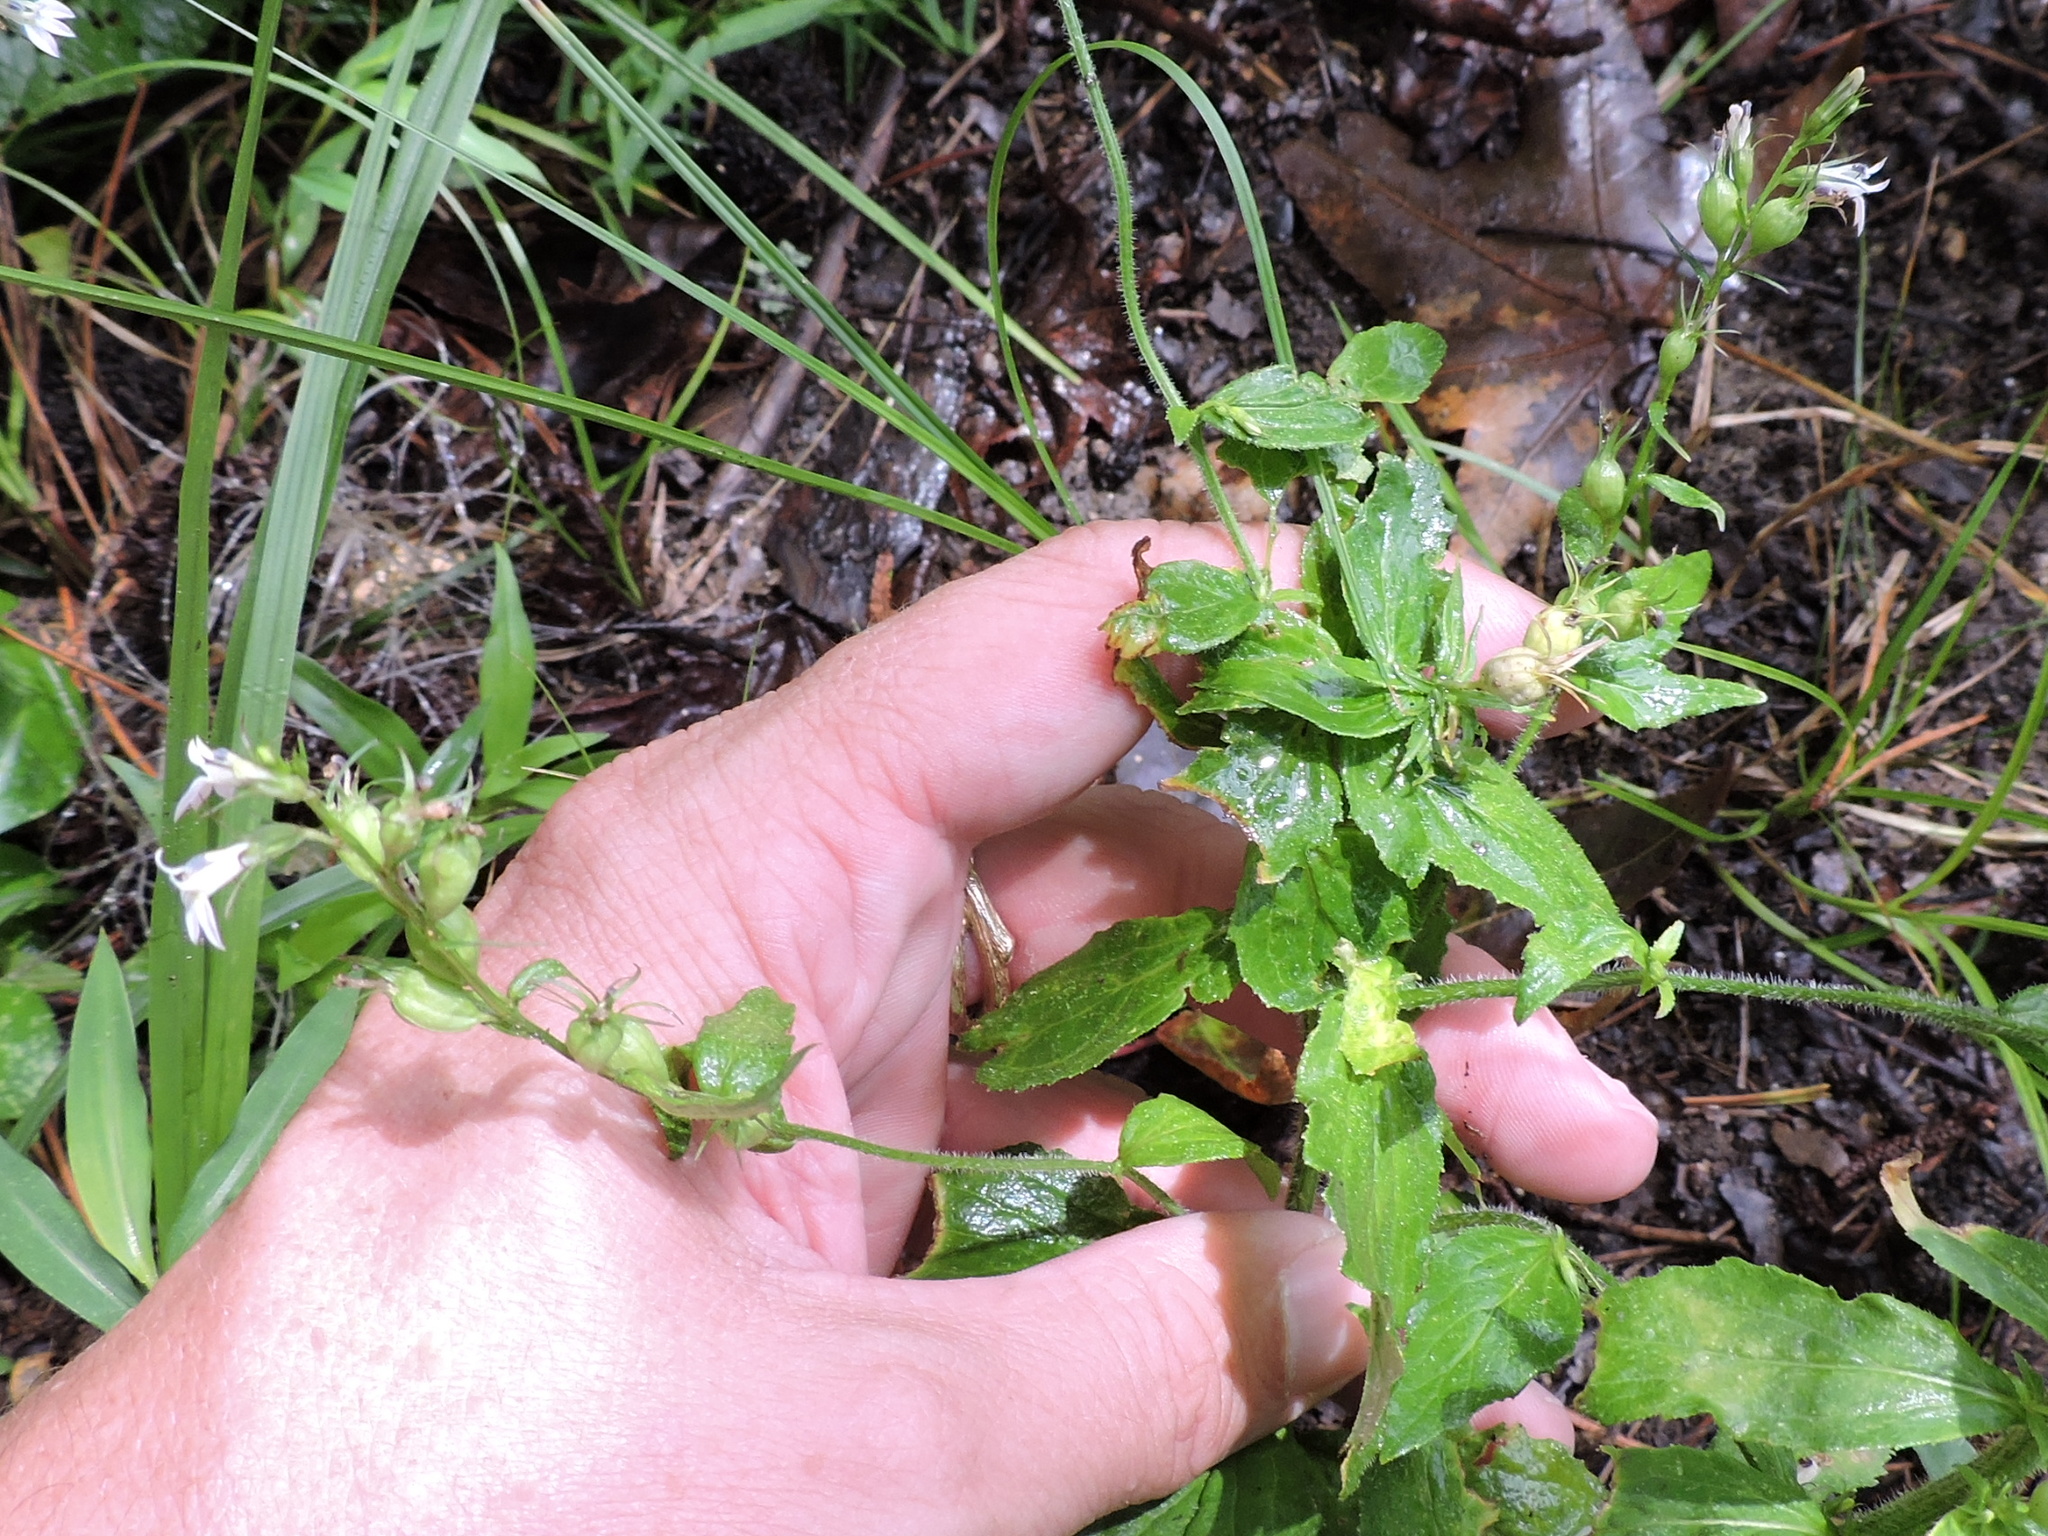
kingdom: Plantae
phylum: Tracheophyta
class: Magnoliopsida
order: Asterales
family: Campanulaceae
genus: Lobelia
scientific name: Lobelia inflata
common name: Indian tobacco
